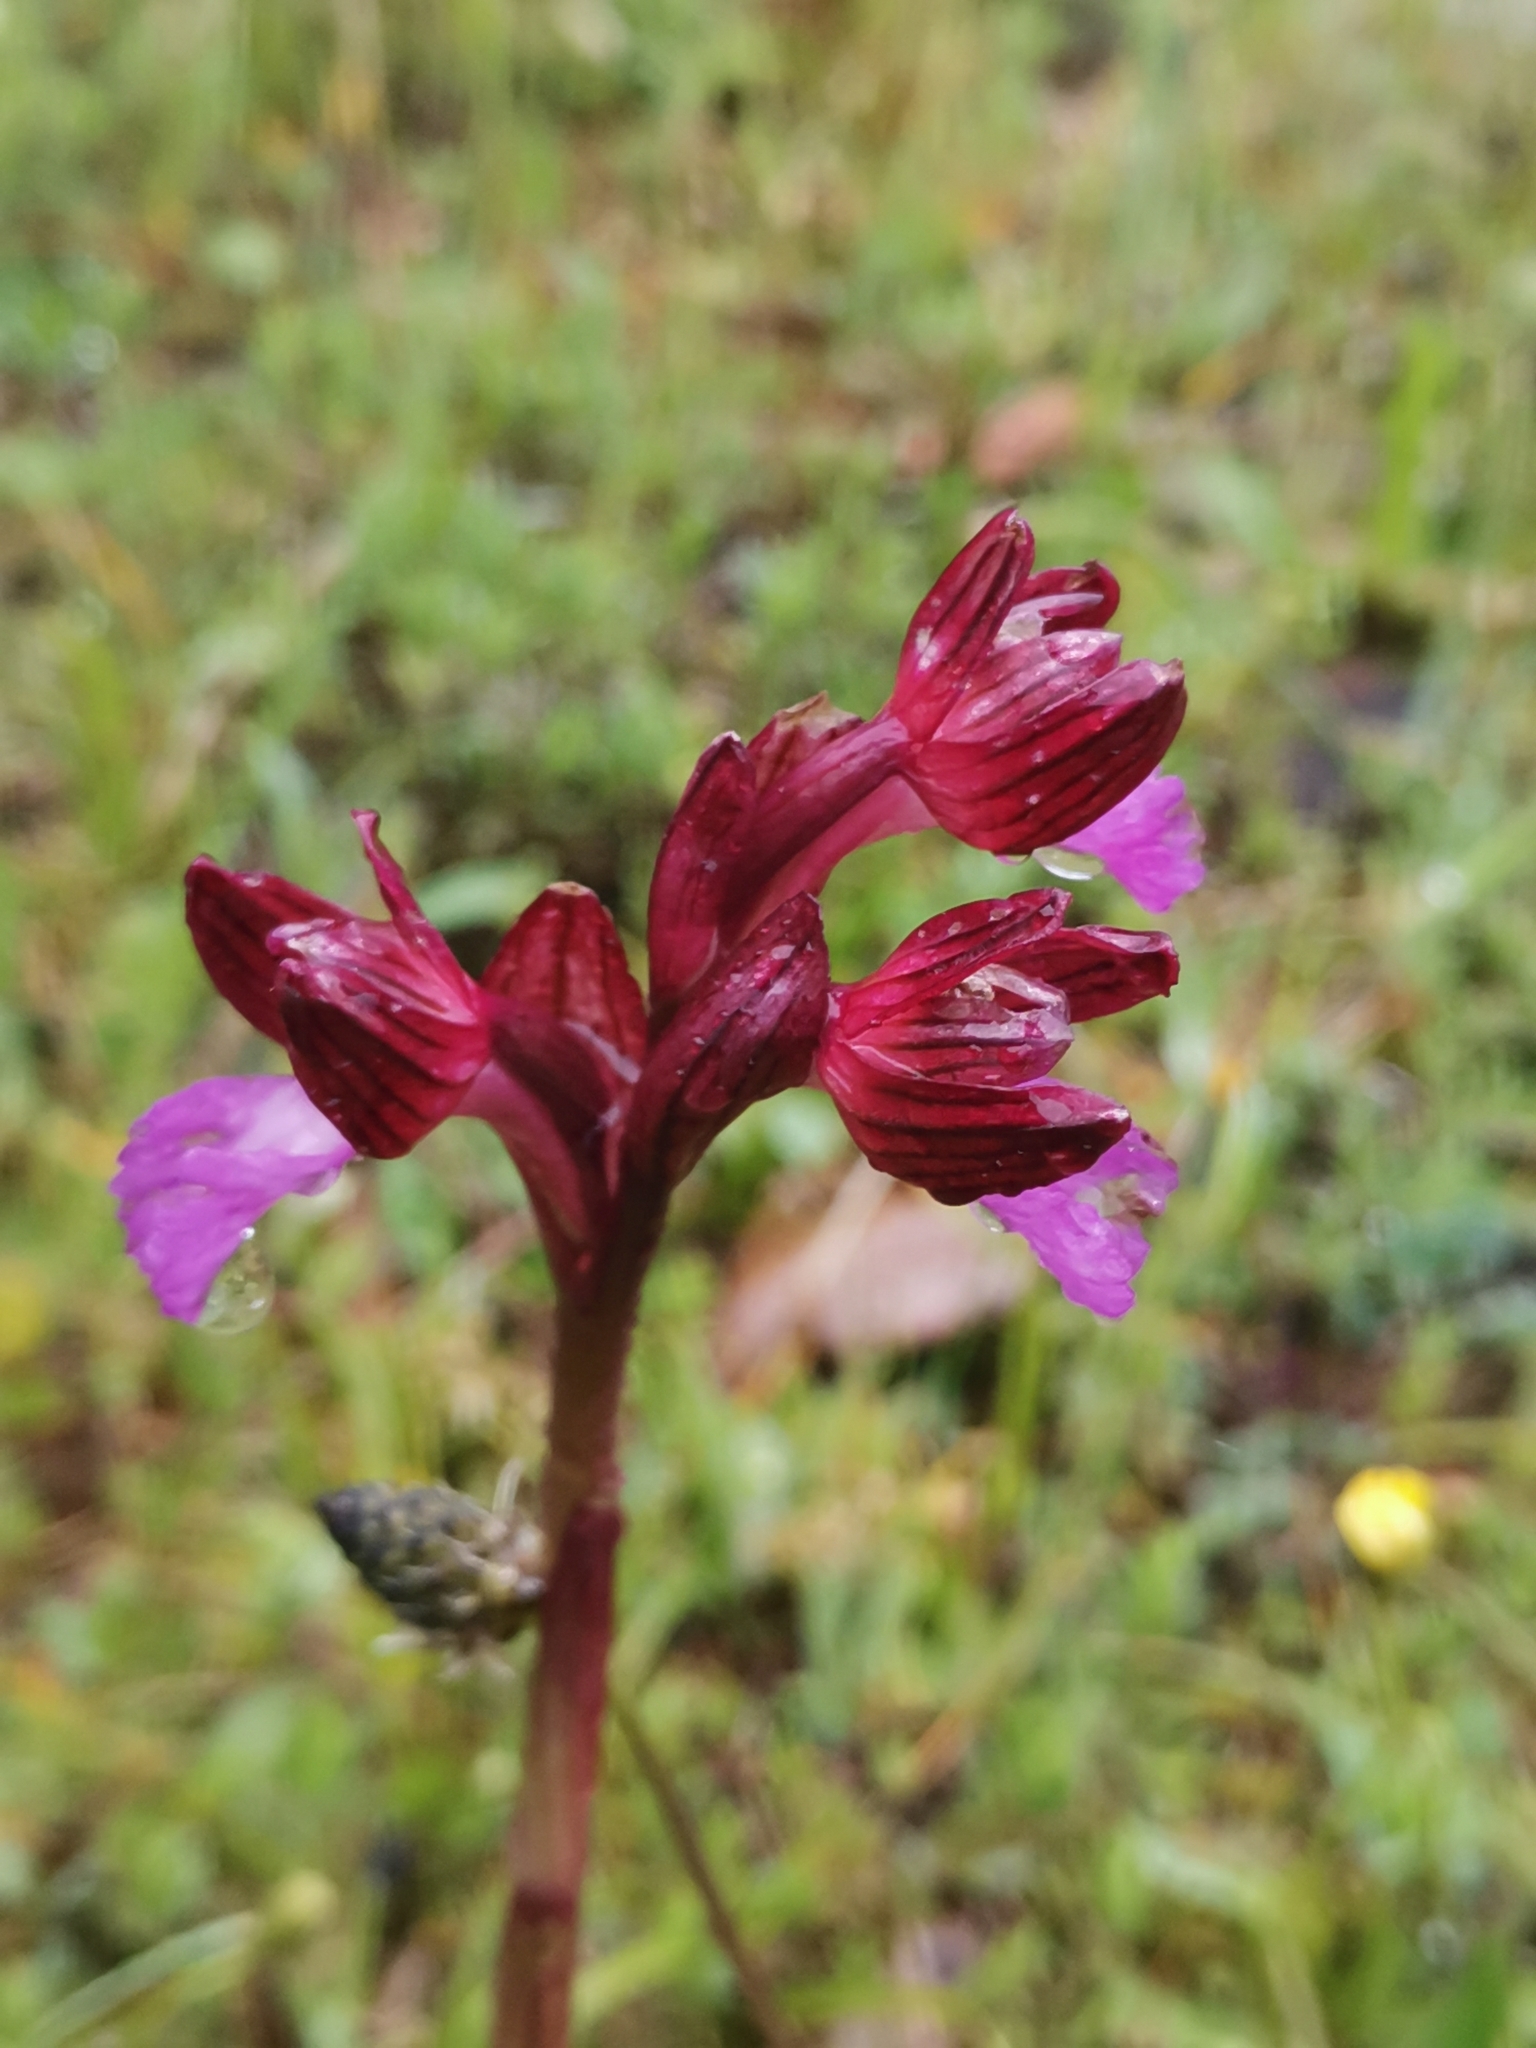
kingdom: Plantae
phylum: Tracheophyta
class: Liliopsida
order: Asparagales
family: Orchidaceae
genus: Anacamptis
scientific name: Anacamptis papilionacea
